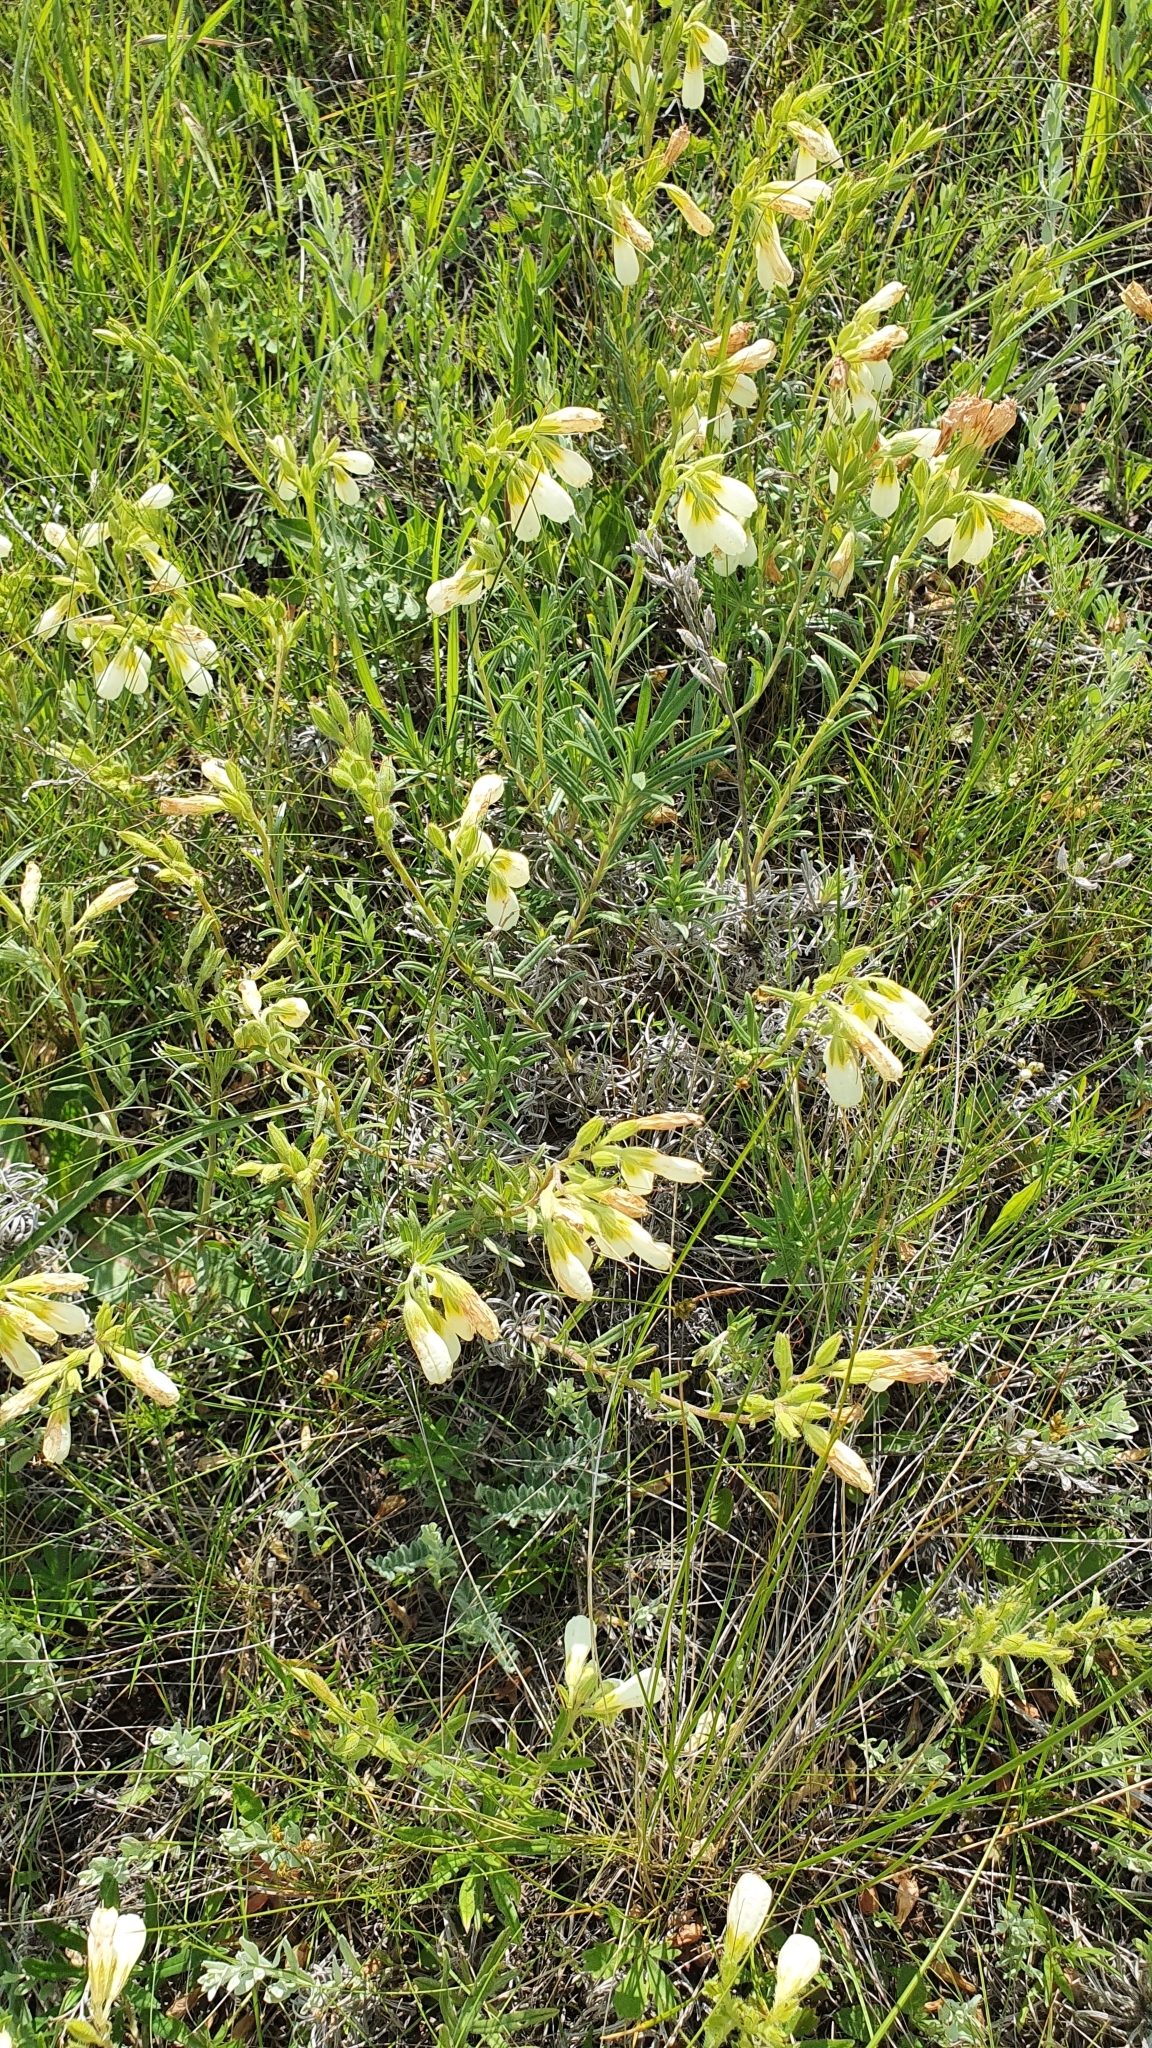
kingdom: Plantae
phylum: Tracheophyta
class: Magnoliopsida
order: Boraginales
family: Boraginaceae
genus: Onosma
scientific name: Onosma simplicissima
